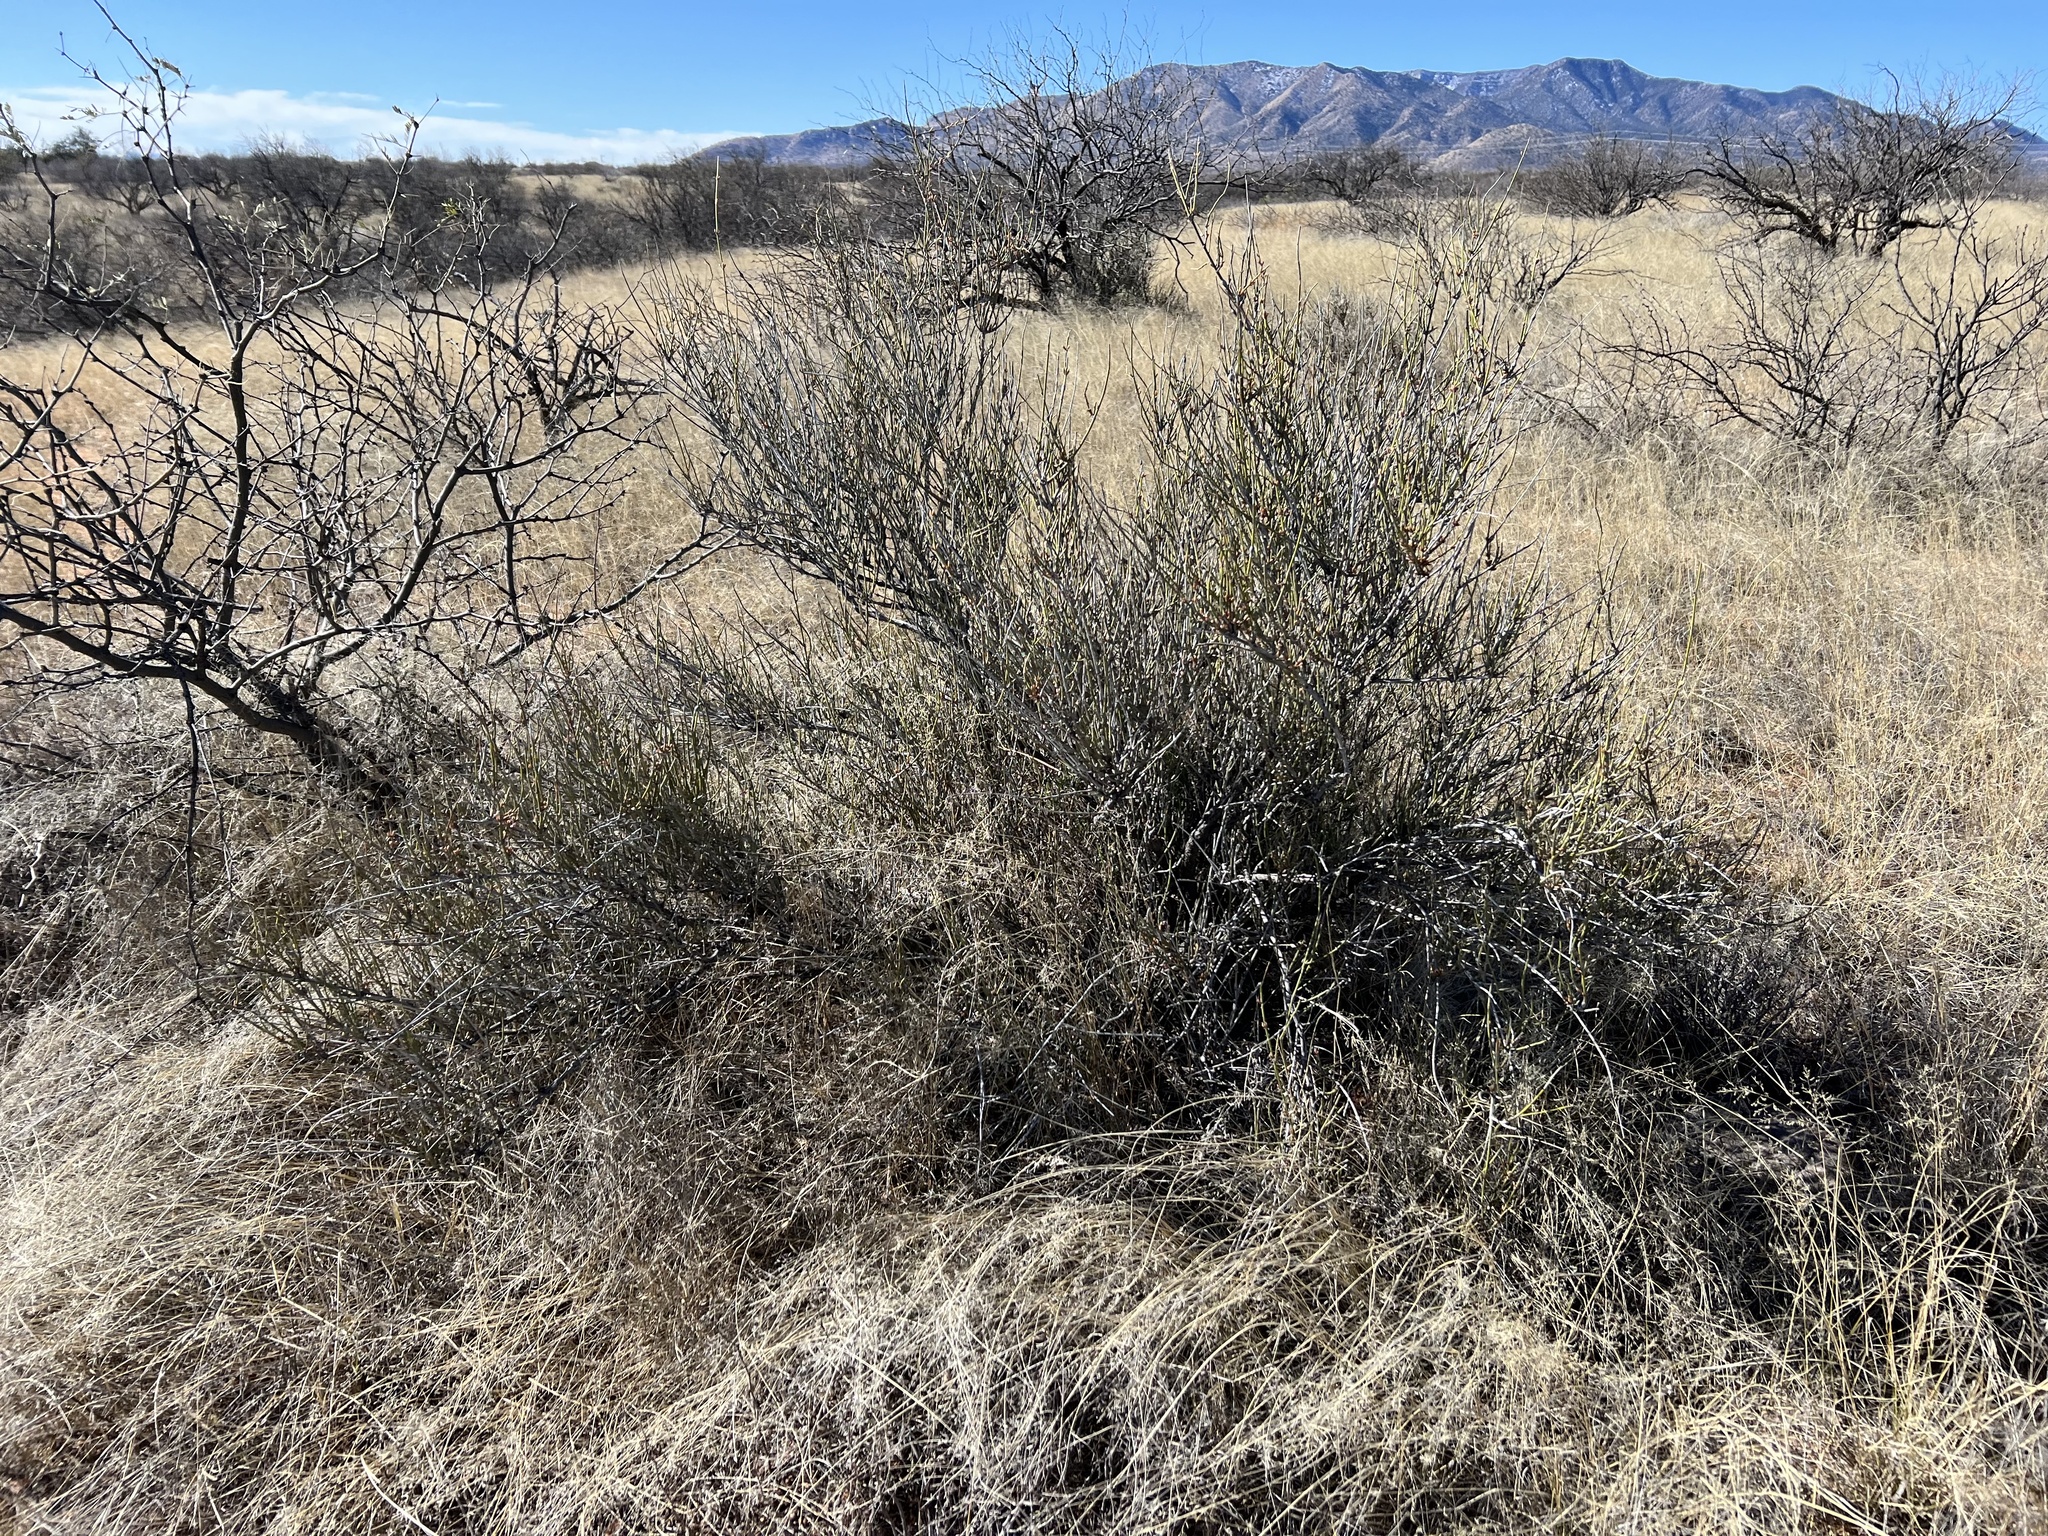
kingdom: Plantae
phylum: Tracheophyta
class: Gnetopsida
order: Ephedrales
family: Ephedraceae
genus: Ephedra
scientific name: Ephedra trifurca
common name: Mexican-tea
